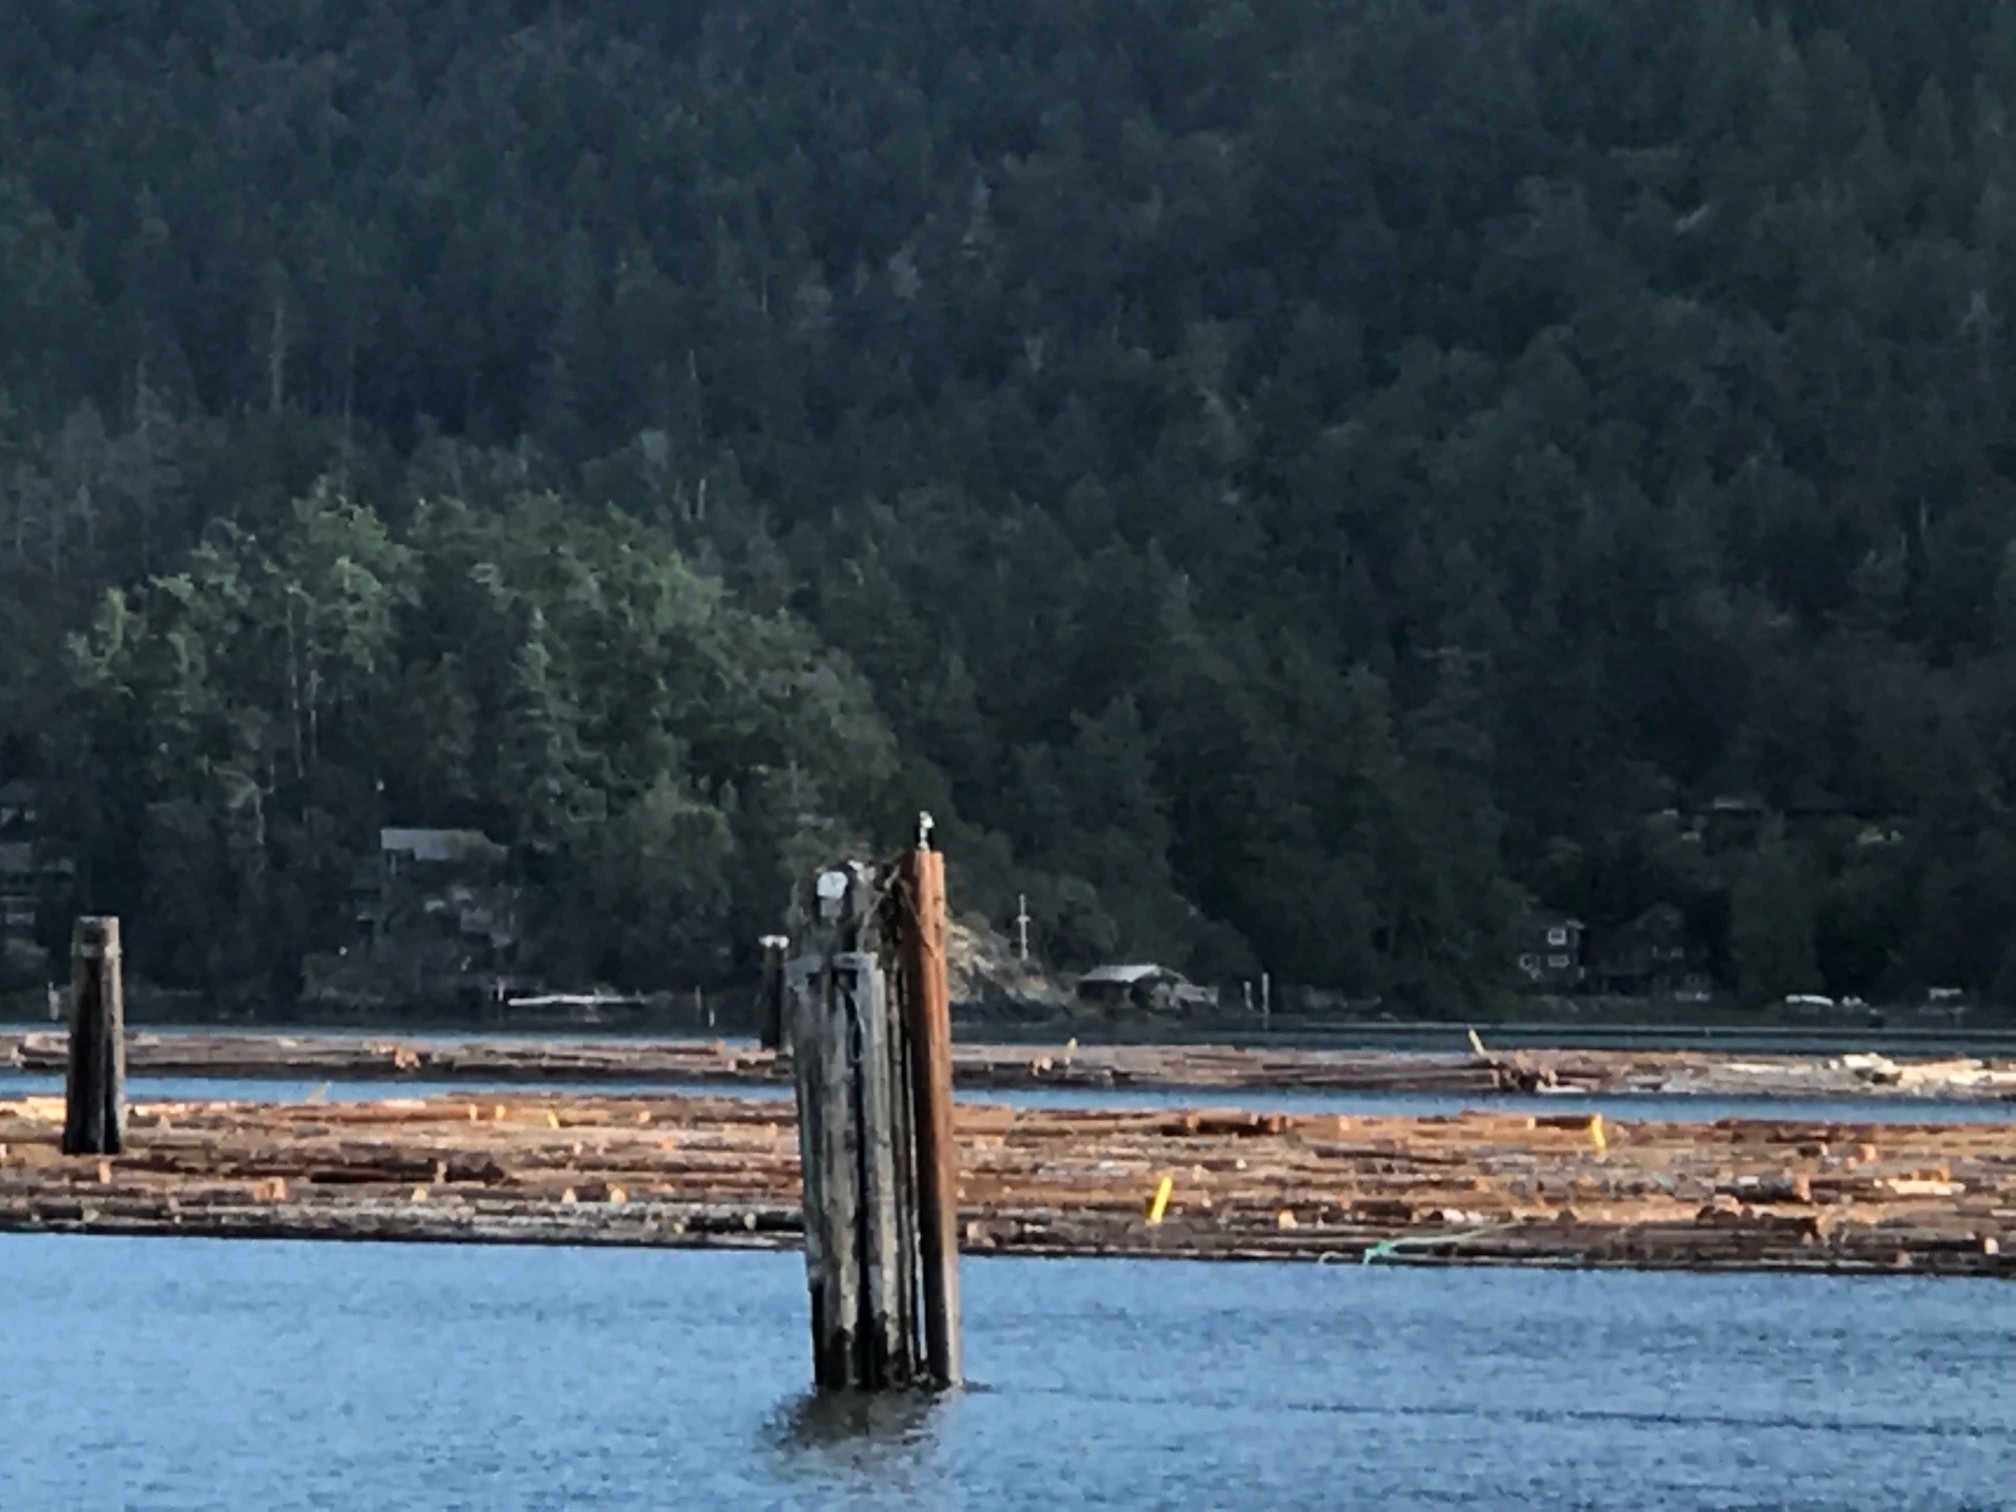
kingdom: Animalia
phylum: Chordata
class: Aves
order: Accipitriformes
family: Pandionidae
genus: Pandion
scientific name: Pandion haliaetus
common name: Osprey
